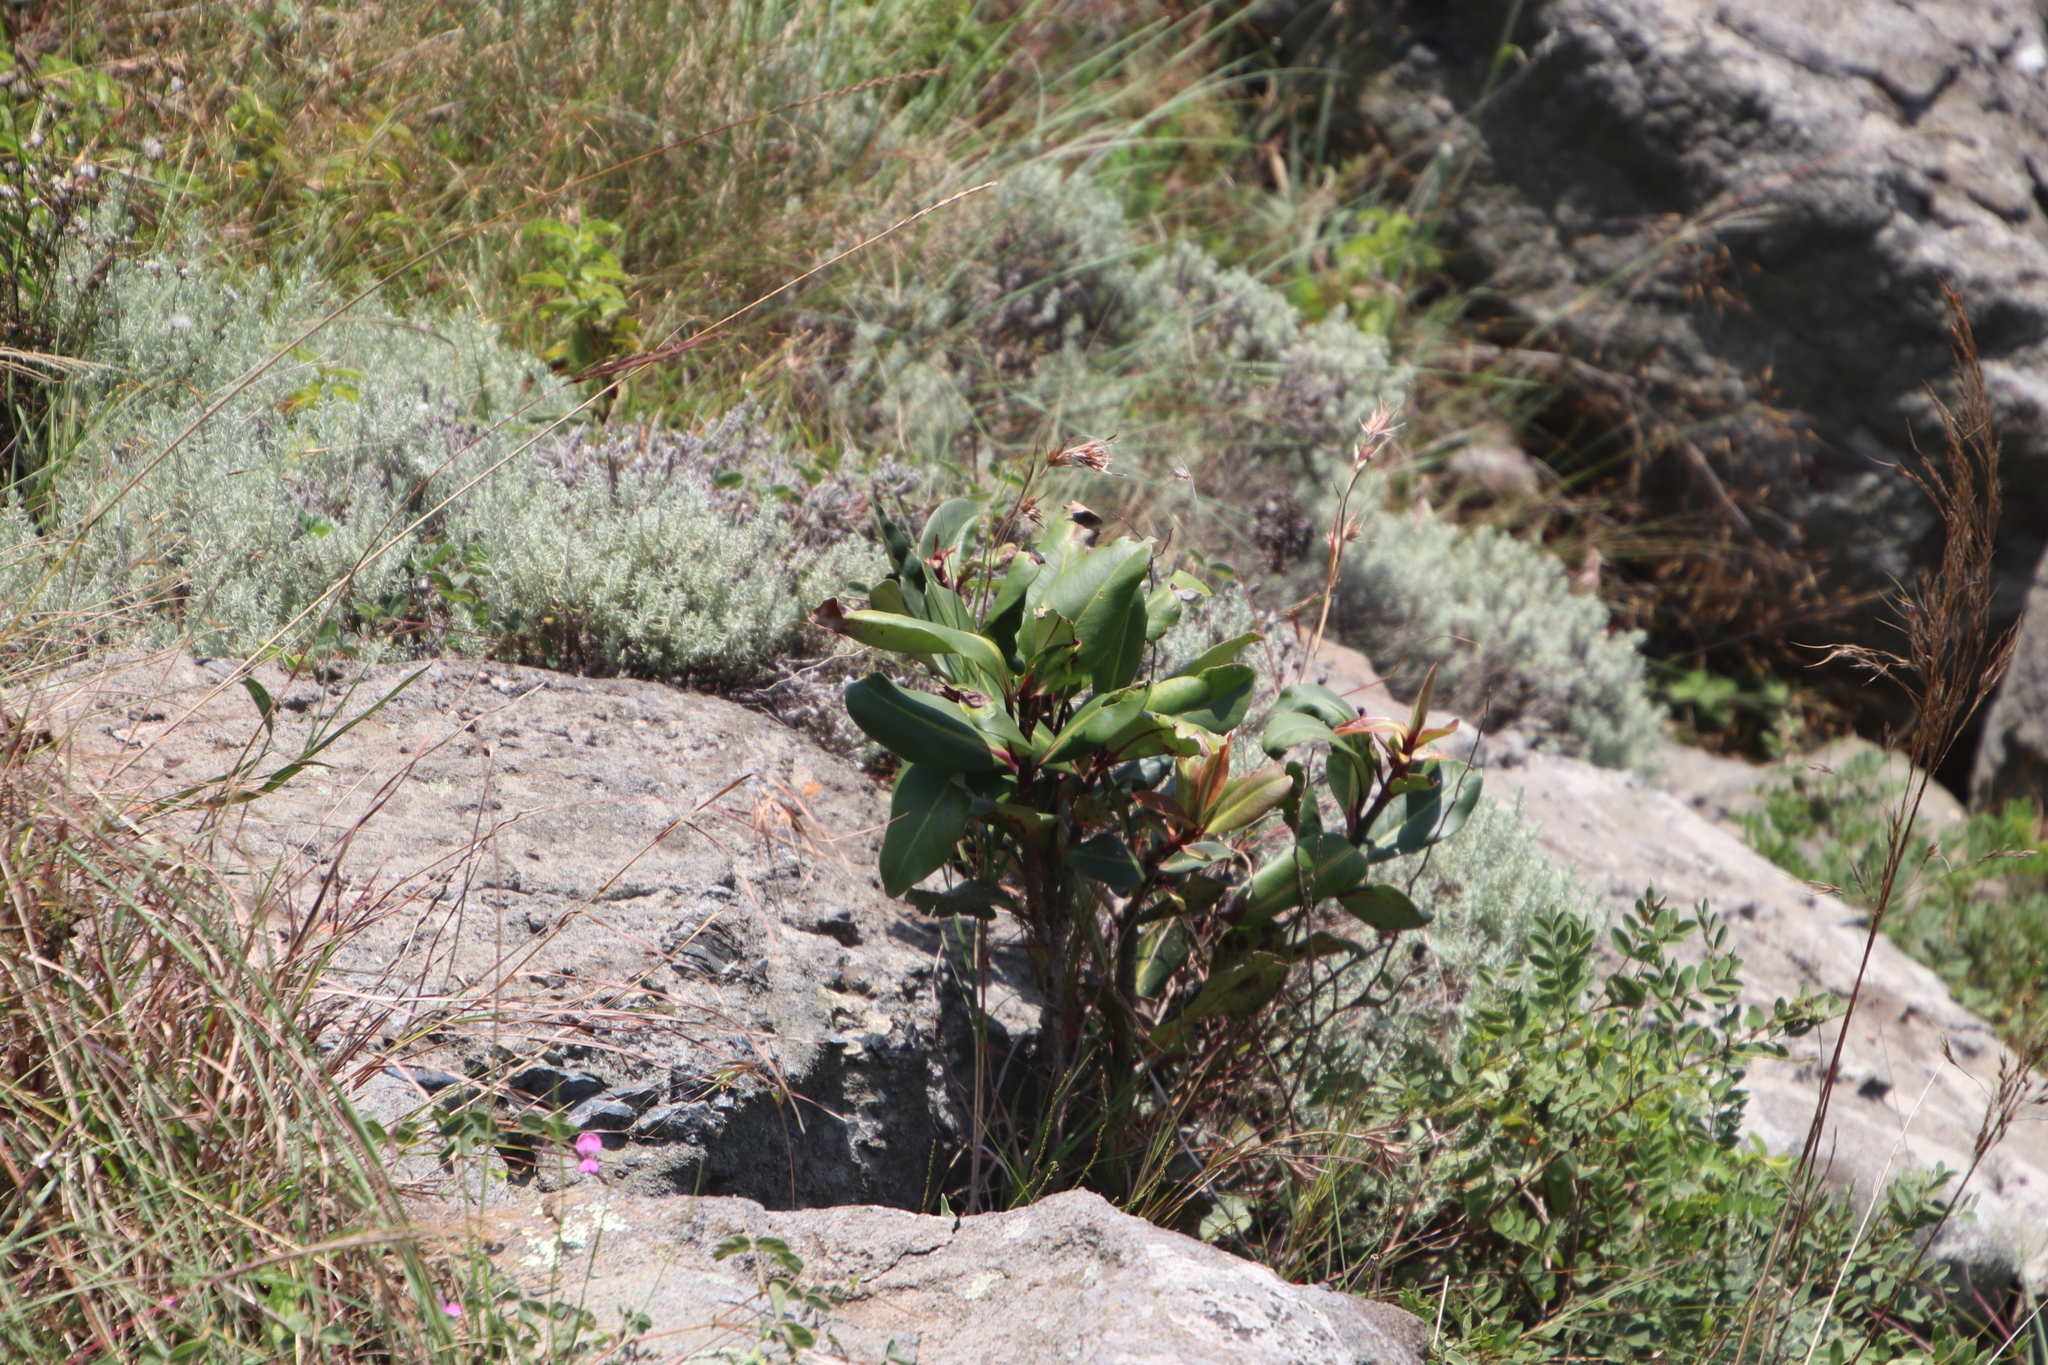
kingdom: Plantae
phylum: Tracheophyta
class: Magnoliopsida
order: Ericales
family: Primulaceae
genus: Myrsine
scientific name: Myrsine melanophloeos
